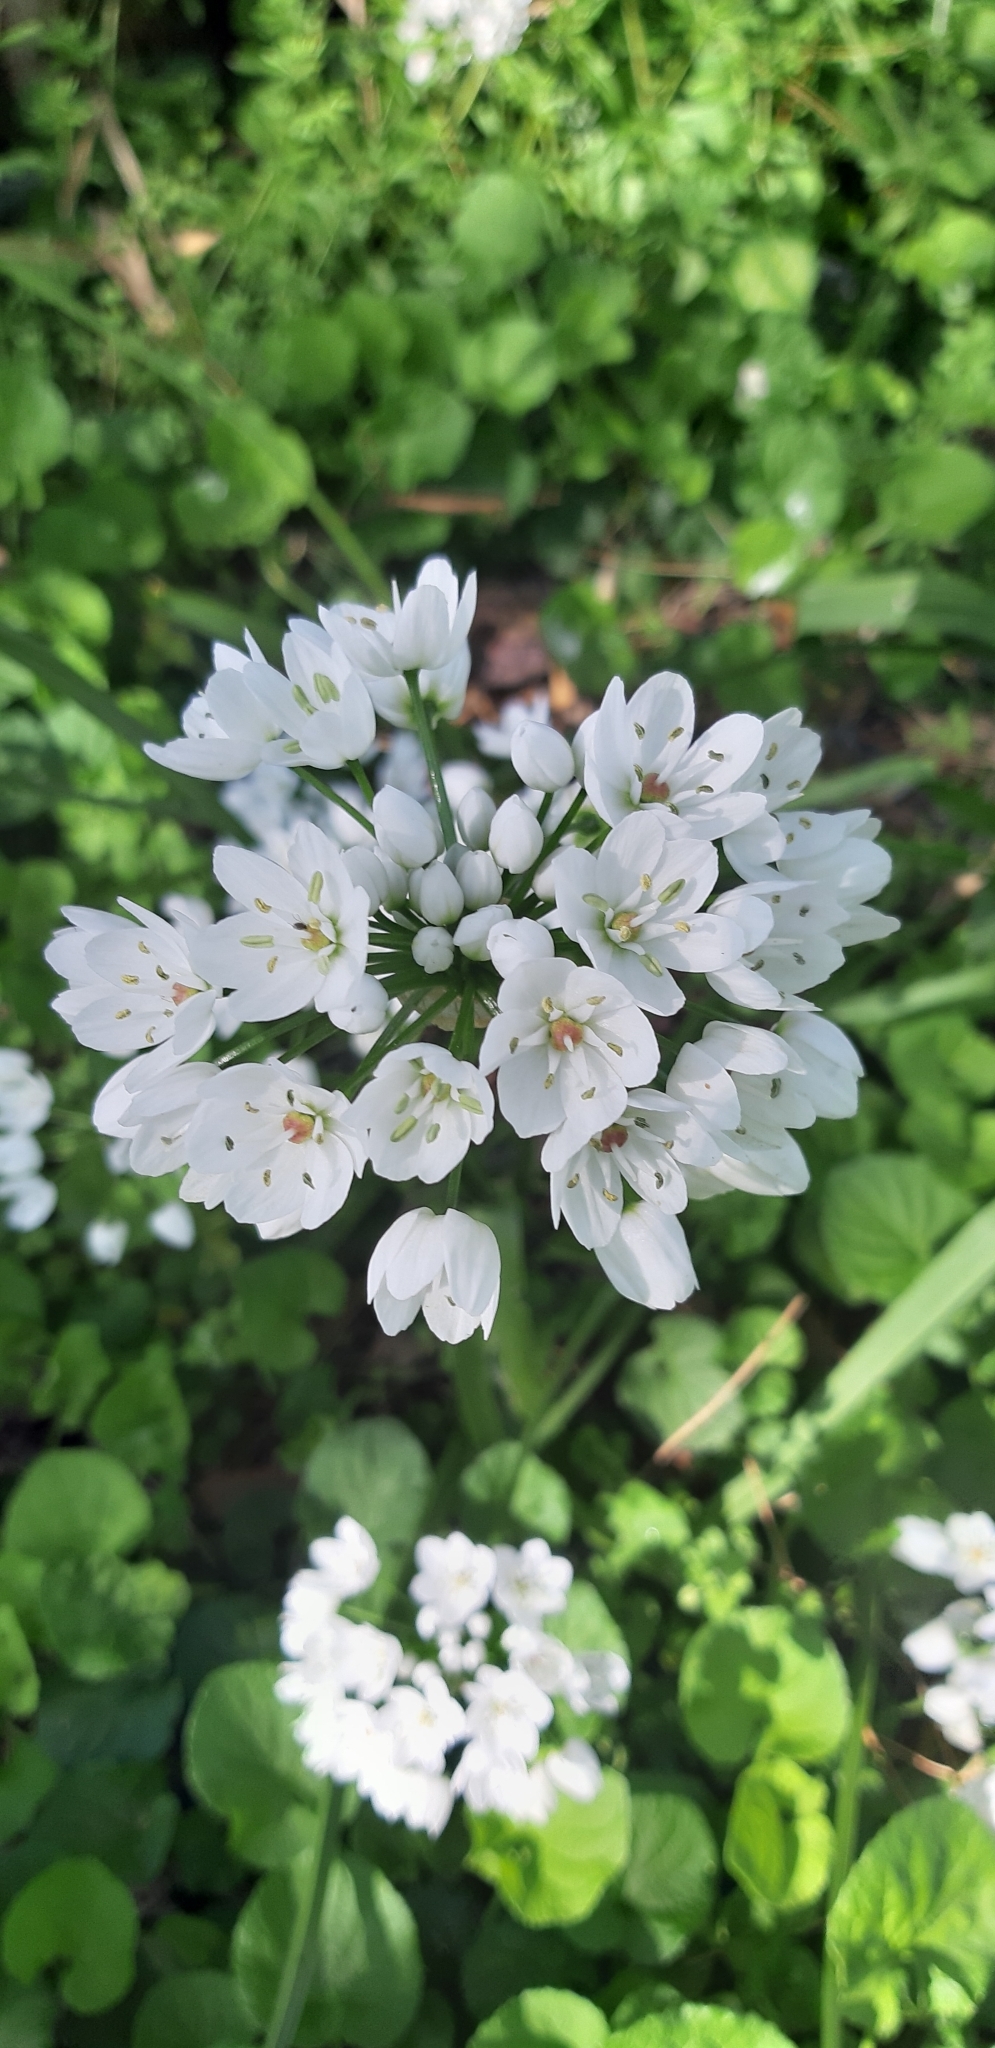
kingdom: Plantae
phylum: Tracheophyta
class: Liliopsida
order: Asparagales
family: Amaryllidaceae
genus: Allium
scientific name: Allium neapolitanum
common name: Neapolitan garlic
